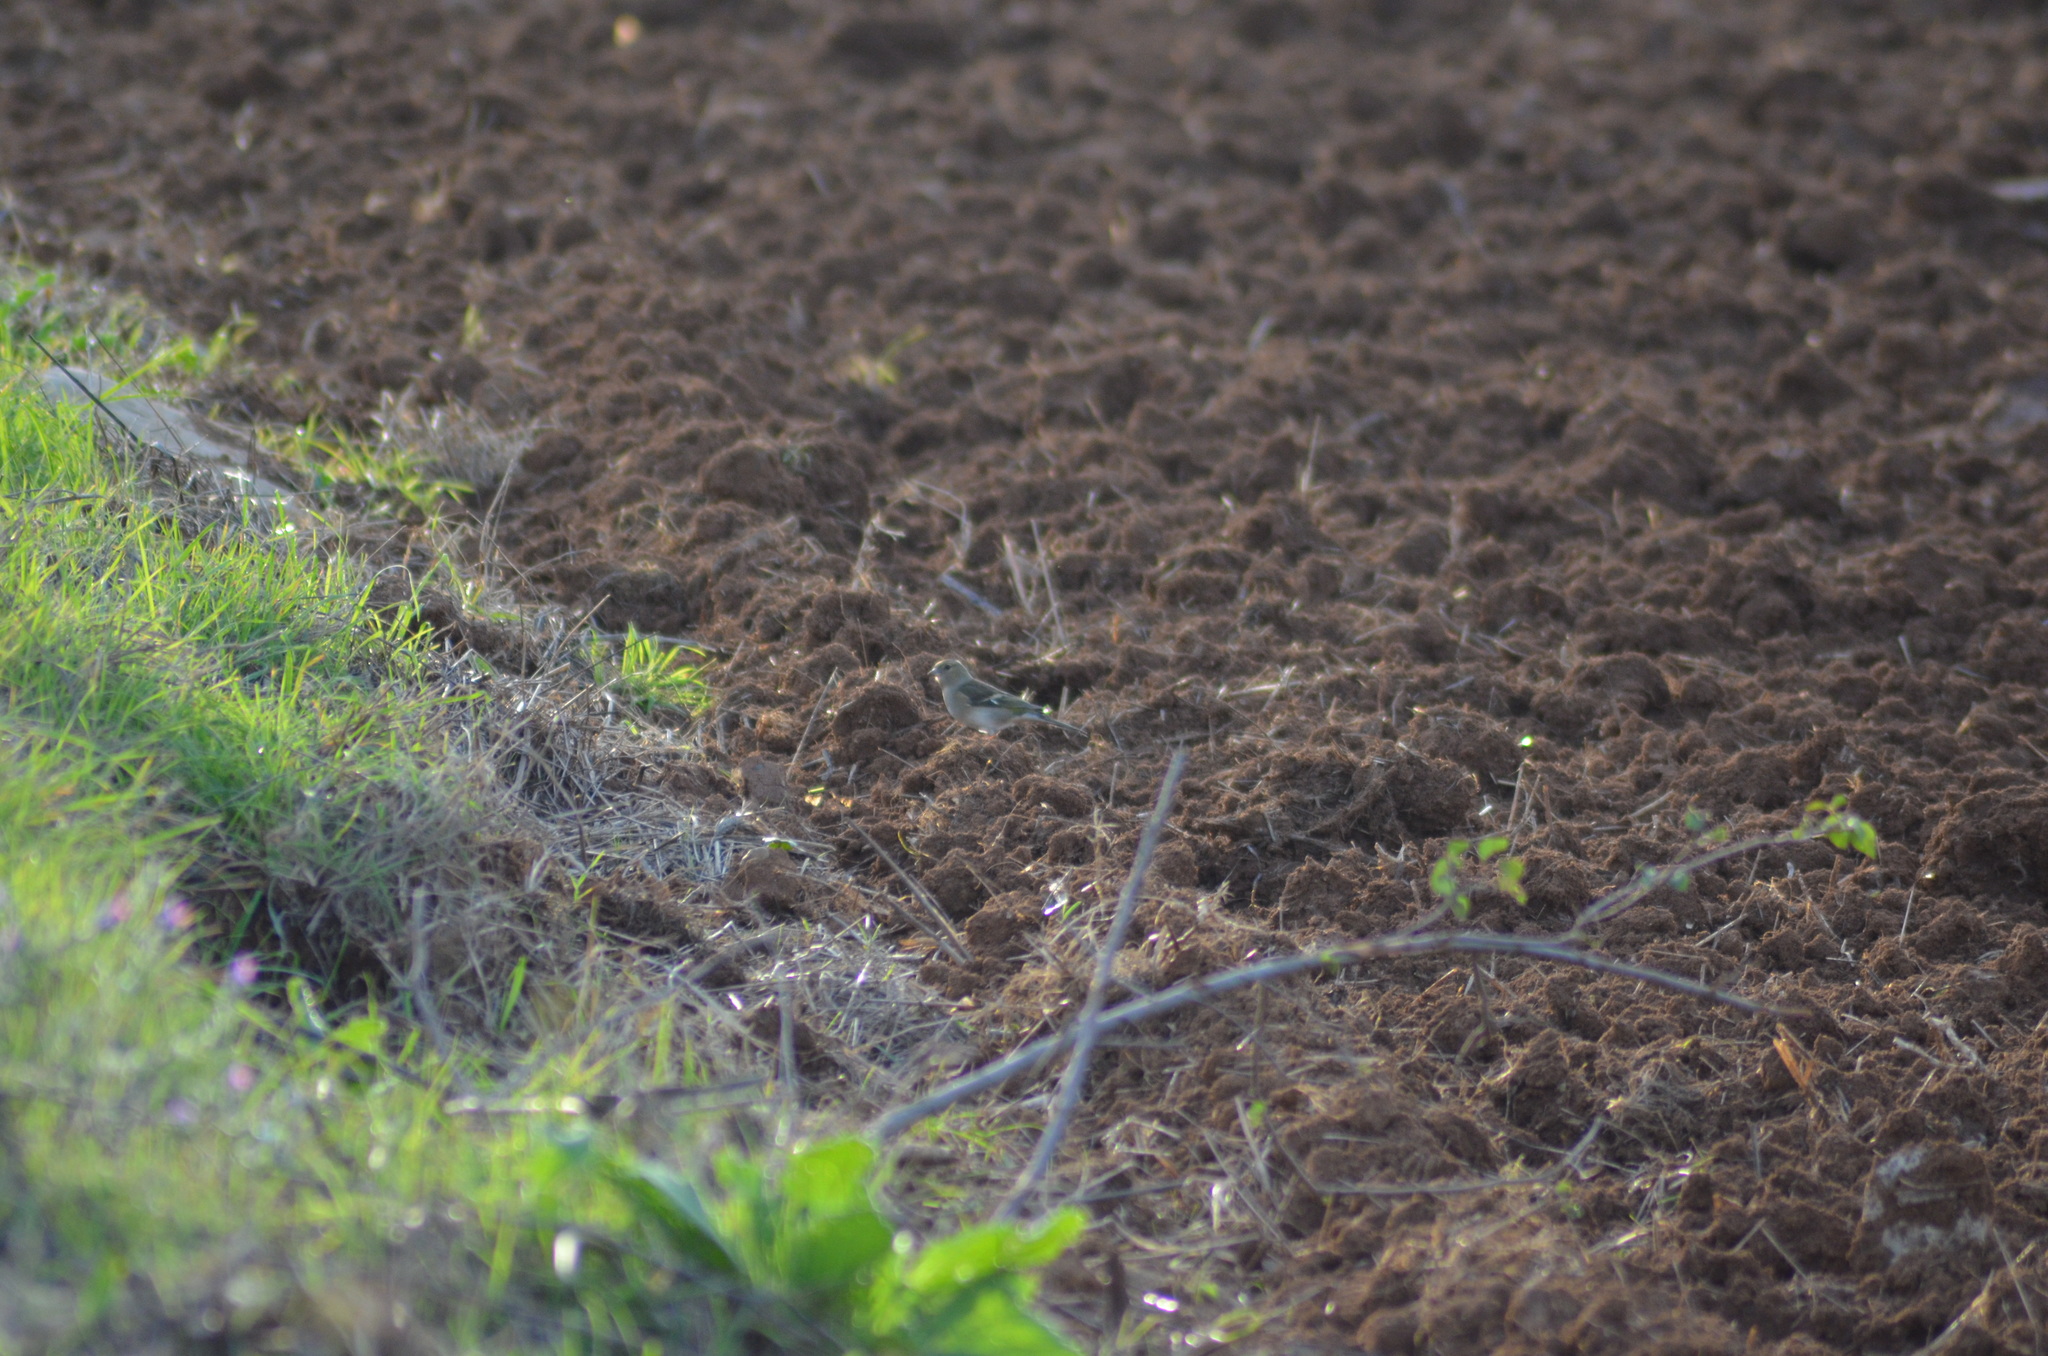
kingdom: Animalia
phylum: Chordata
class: Aves
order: Passeriformes
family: Fringillidae
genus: Fringilla
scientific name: Fringilla coelebs
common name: Common chaffinch
